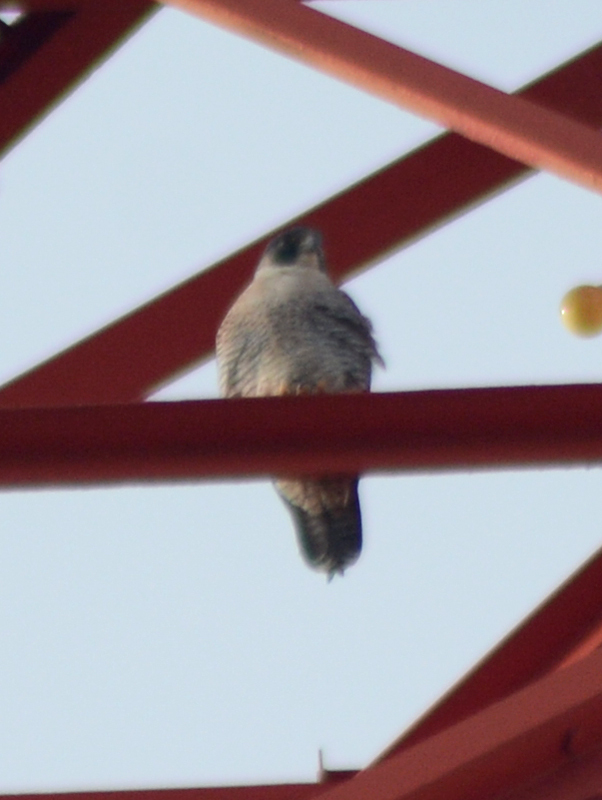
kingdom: Animalia
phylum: Chordata
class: Aves
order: Falconiformes
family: Falconidae
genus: Falco
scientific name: Falco peregrinus
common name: Peregrine falcon
